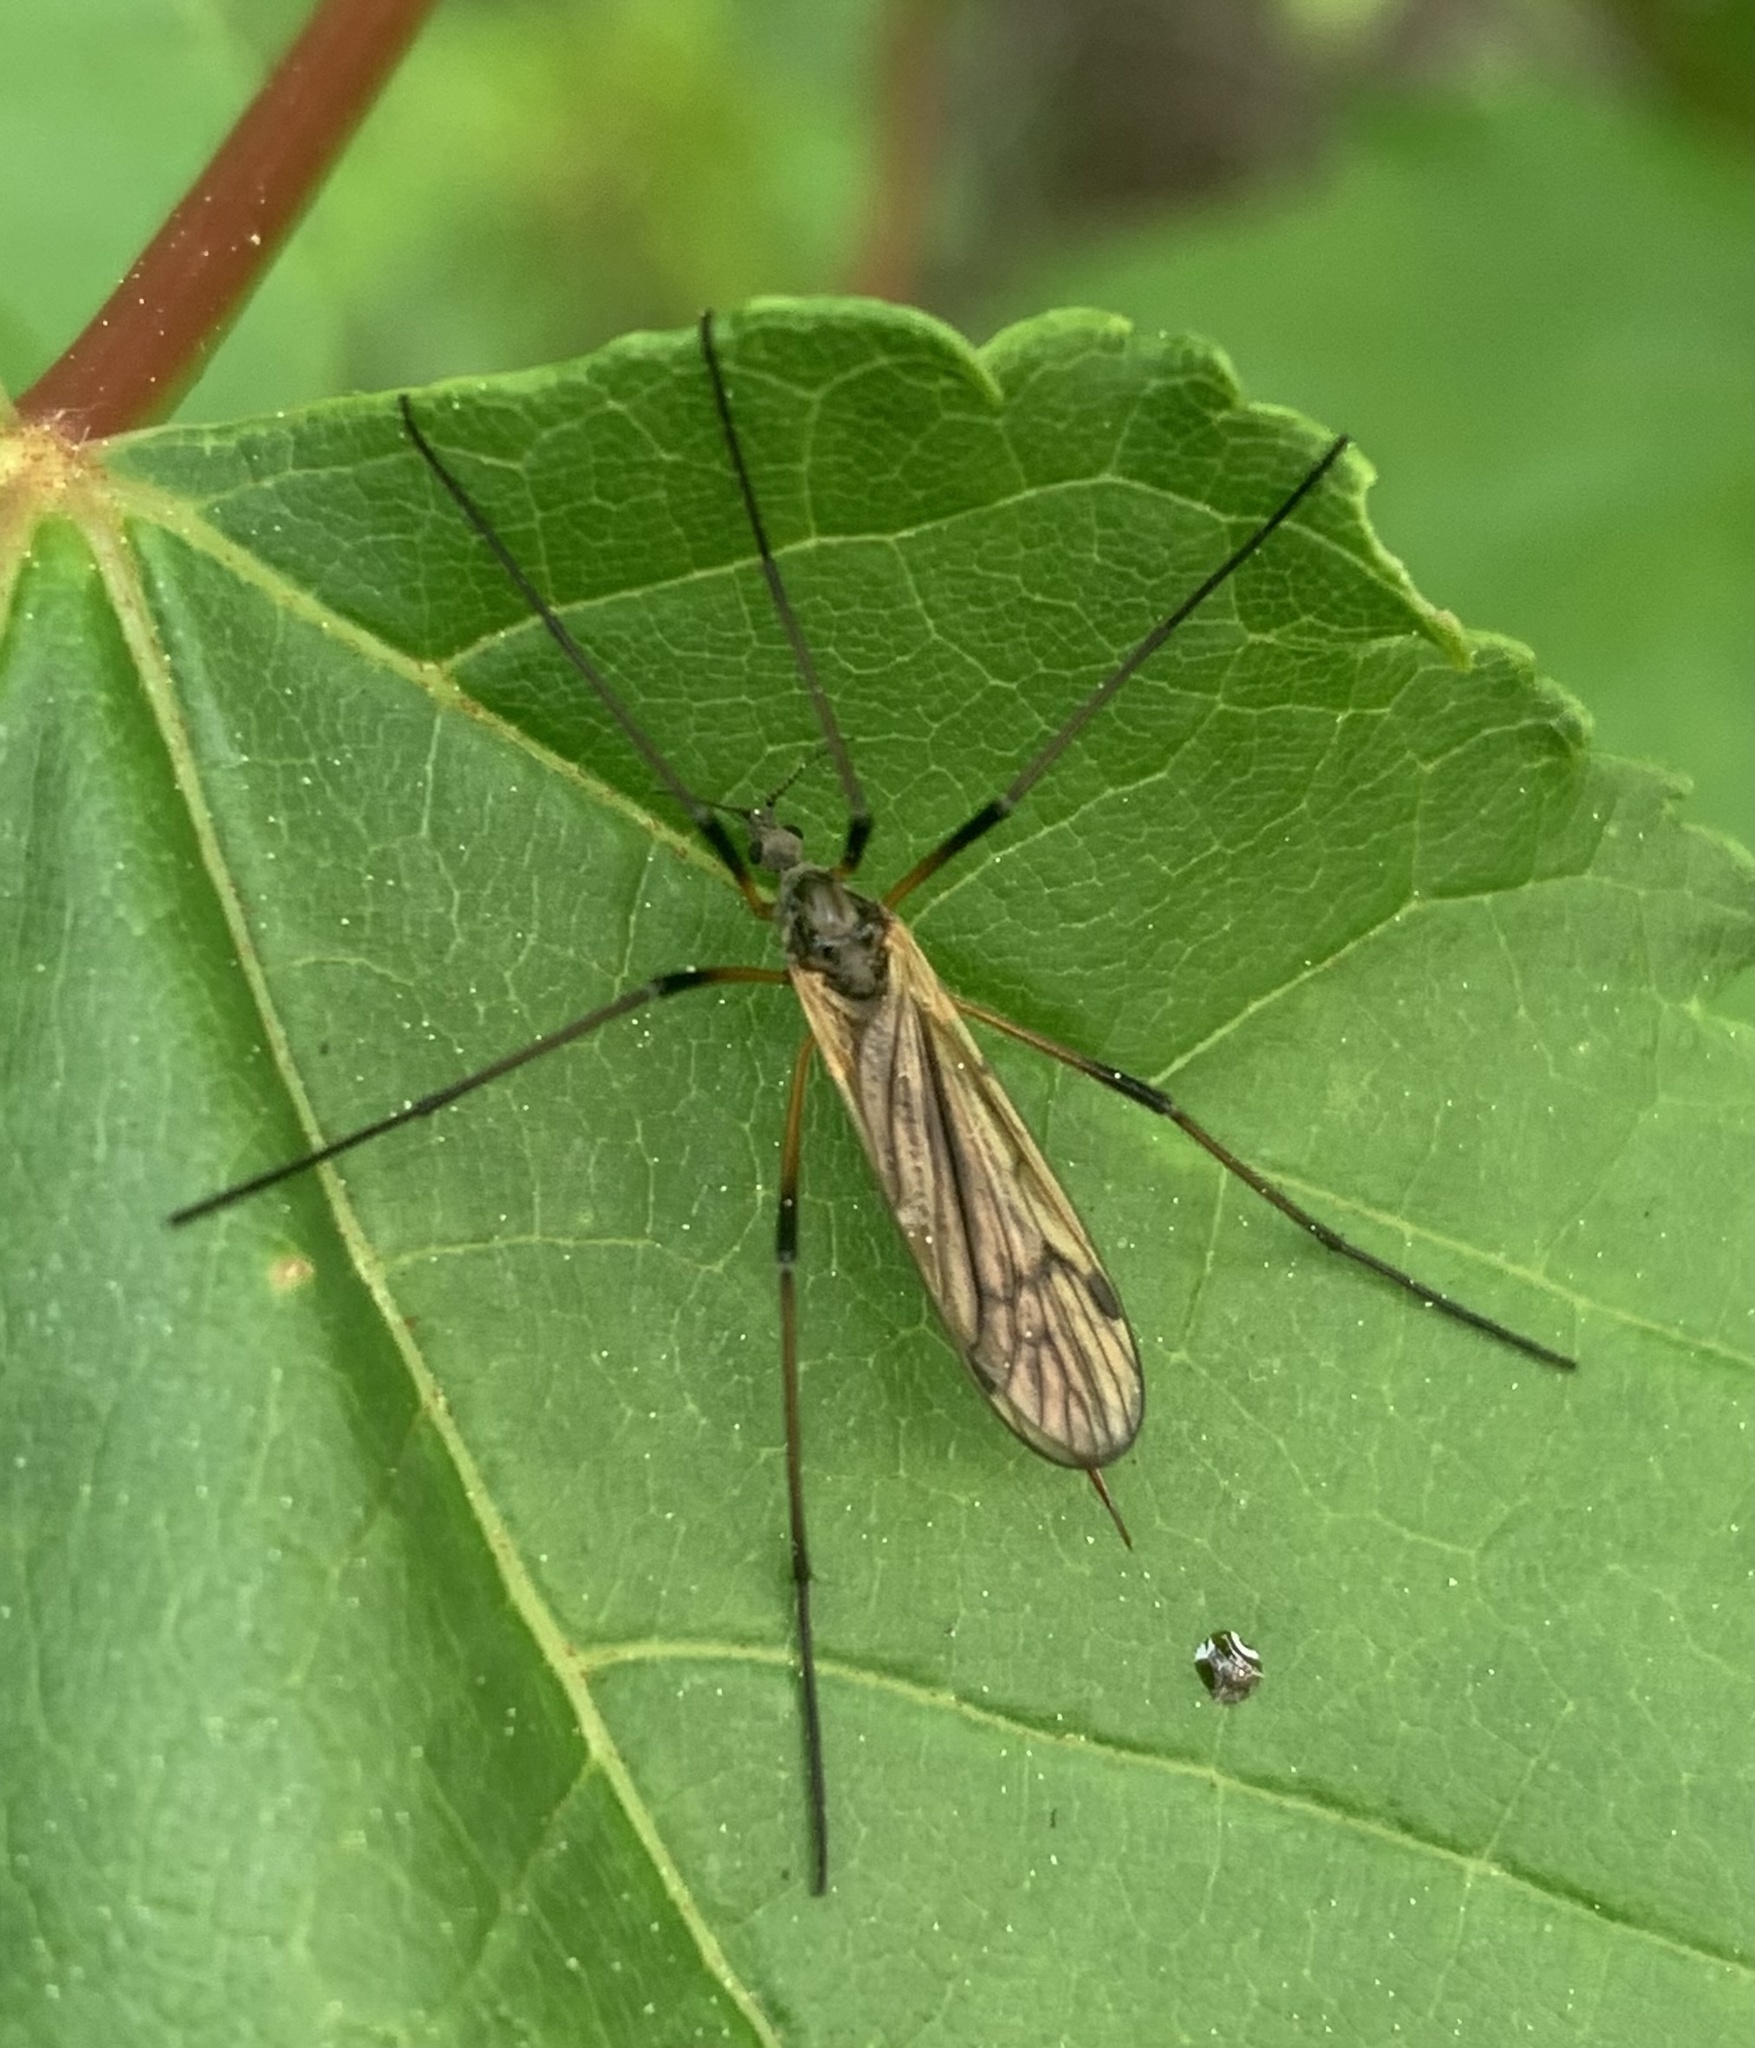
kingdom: Animalia
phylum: Arthropoda
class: Insecta
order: Diptera
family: Limoniidae
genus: Prionolabis
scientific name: Prionolabis rufibasis
